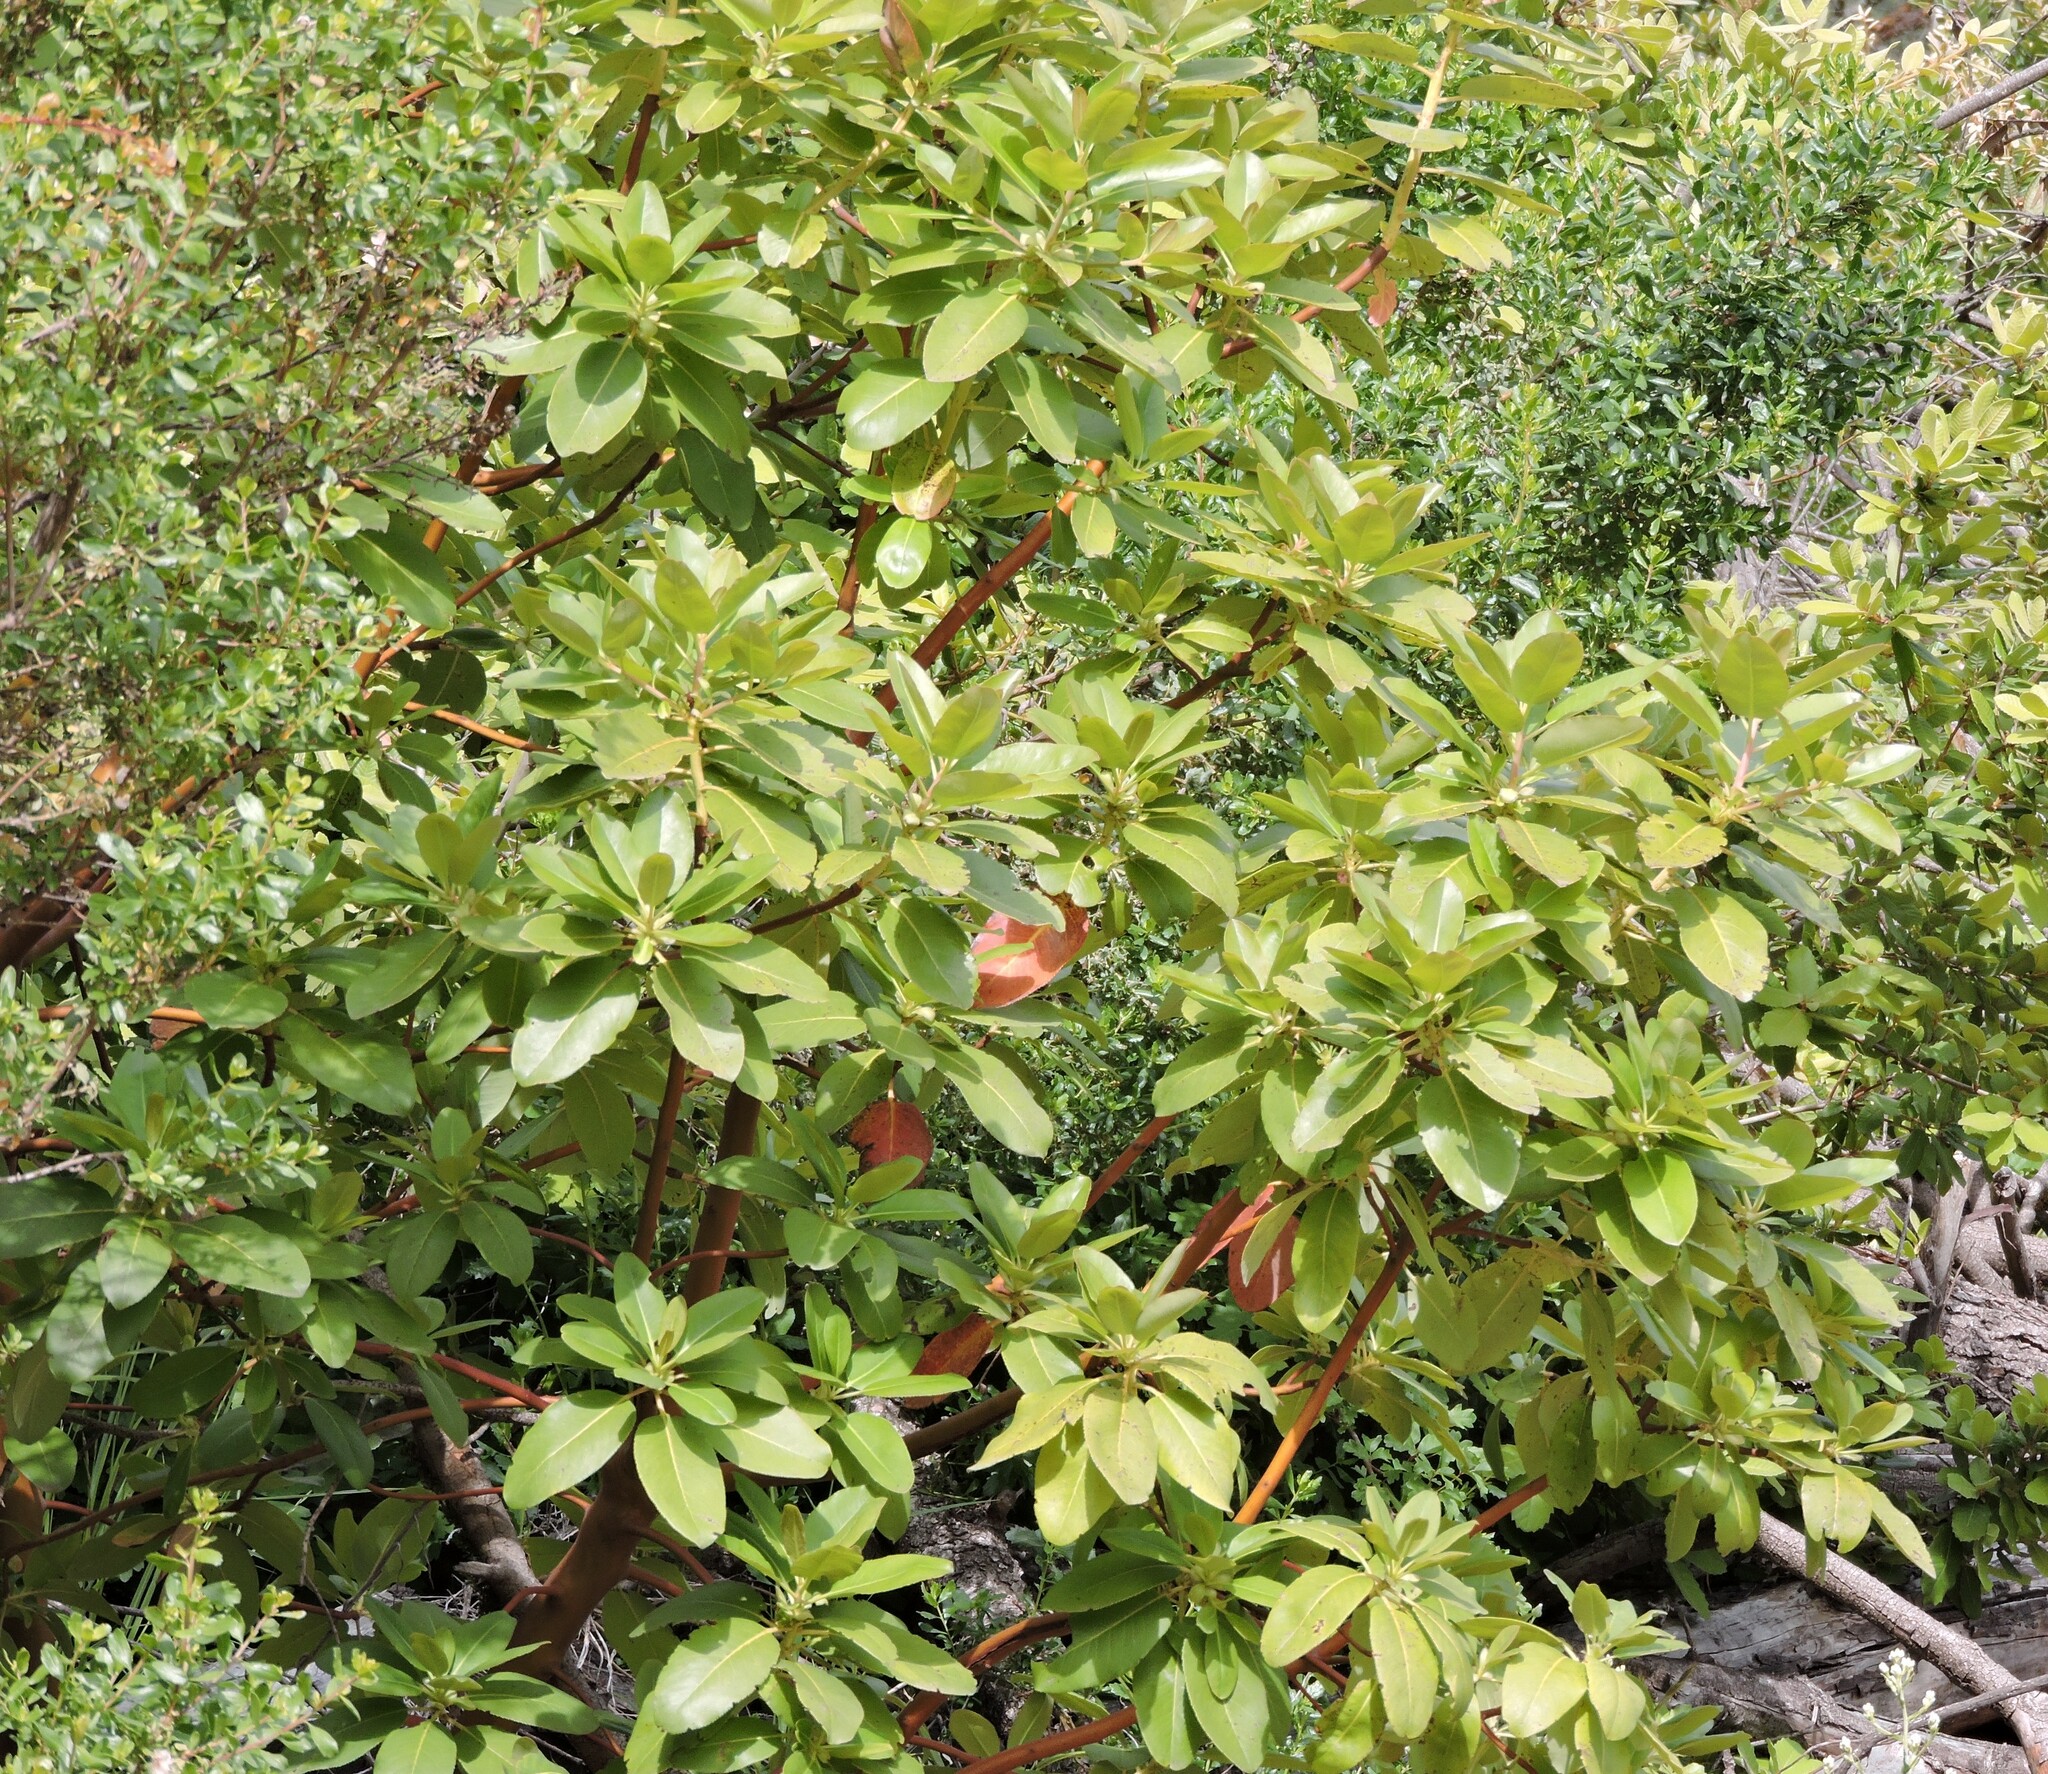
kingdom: Plantae
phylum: Tracheophyta
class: Magnoliopsida
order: Ericales
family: Ericaceae
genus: Arbutus
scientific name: Arbutus menziesii
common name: Pacific madrone
